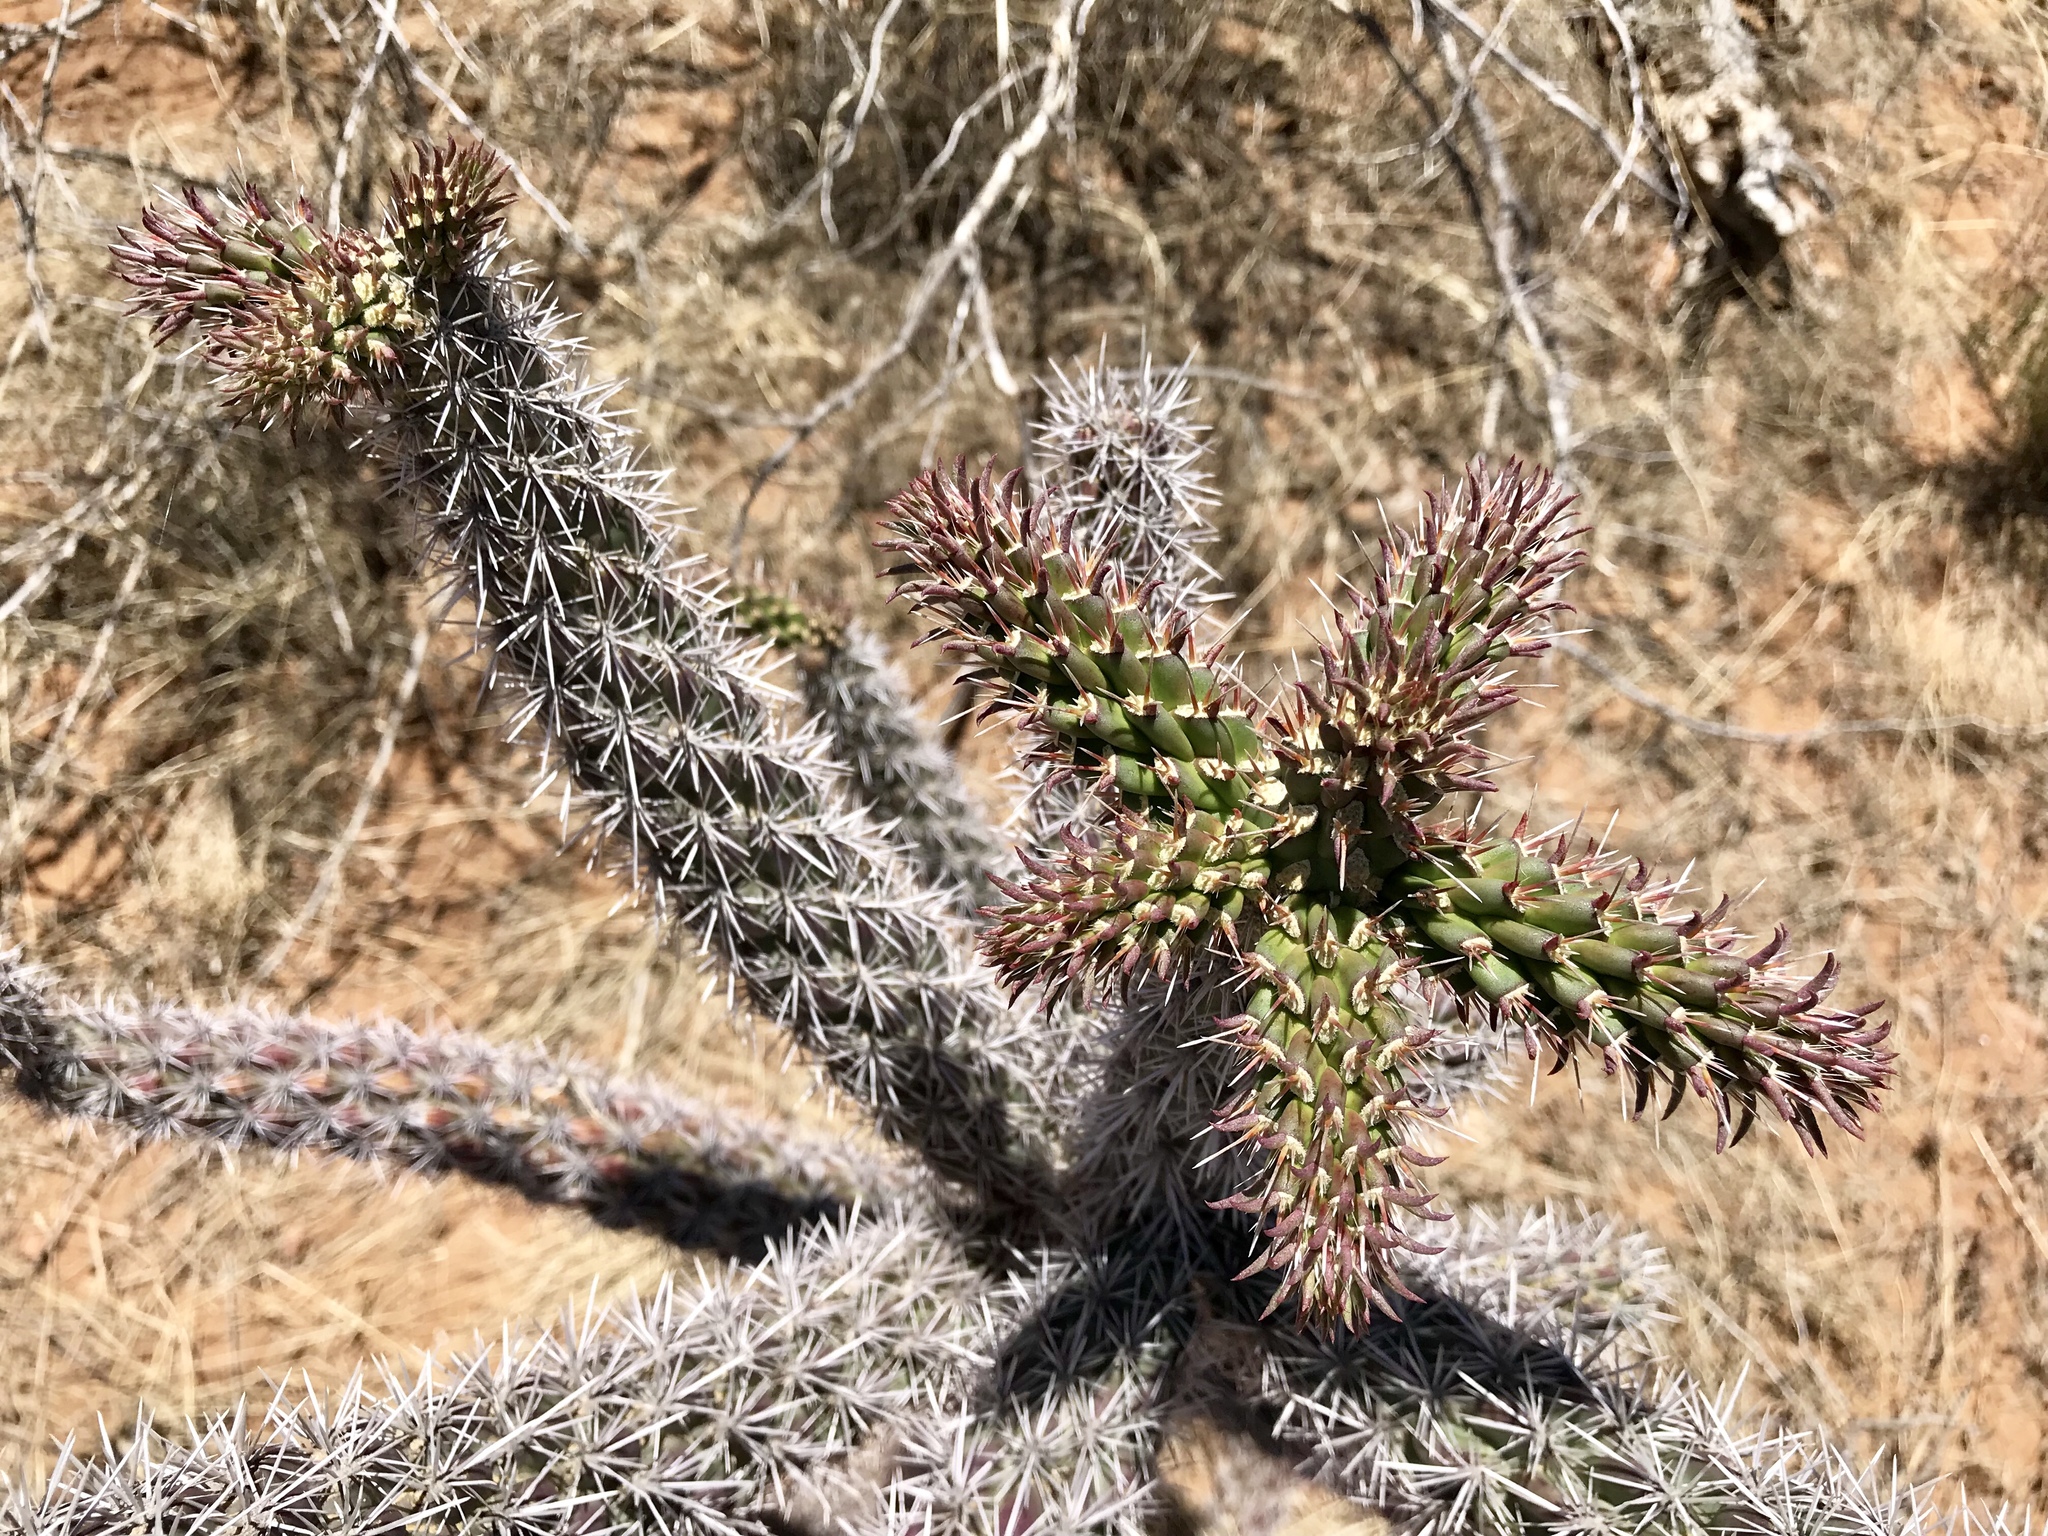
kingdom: Plantae
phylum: Tracheophyta
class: Magnoliopsida
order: Caryophyllales
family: Cactaceae
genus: Cylindropuntia
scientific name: Cylindropuntia imbricata
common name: Candelabrum cactus
